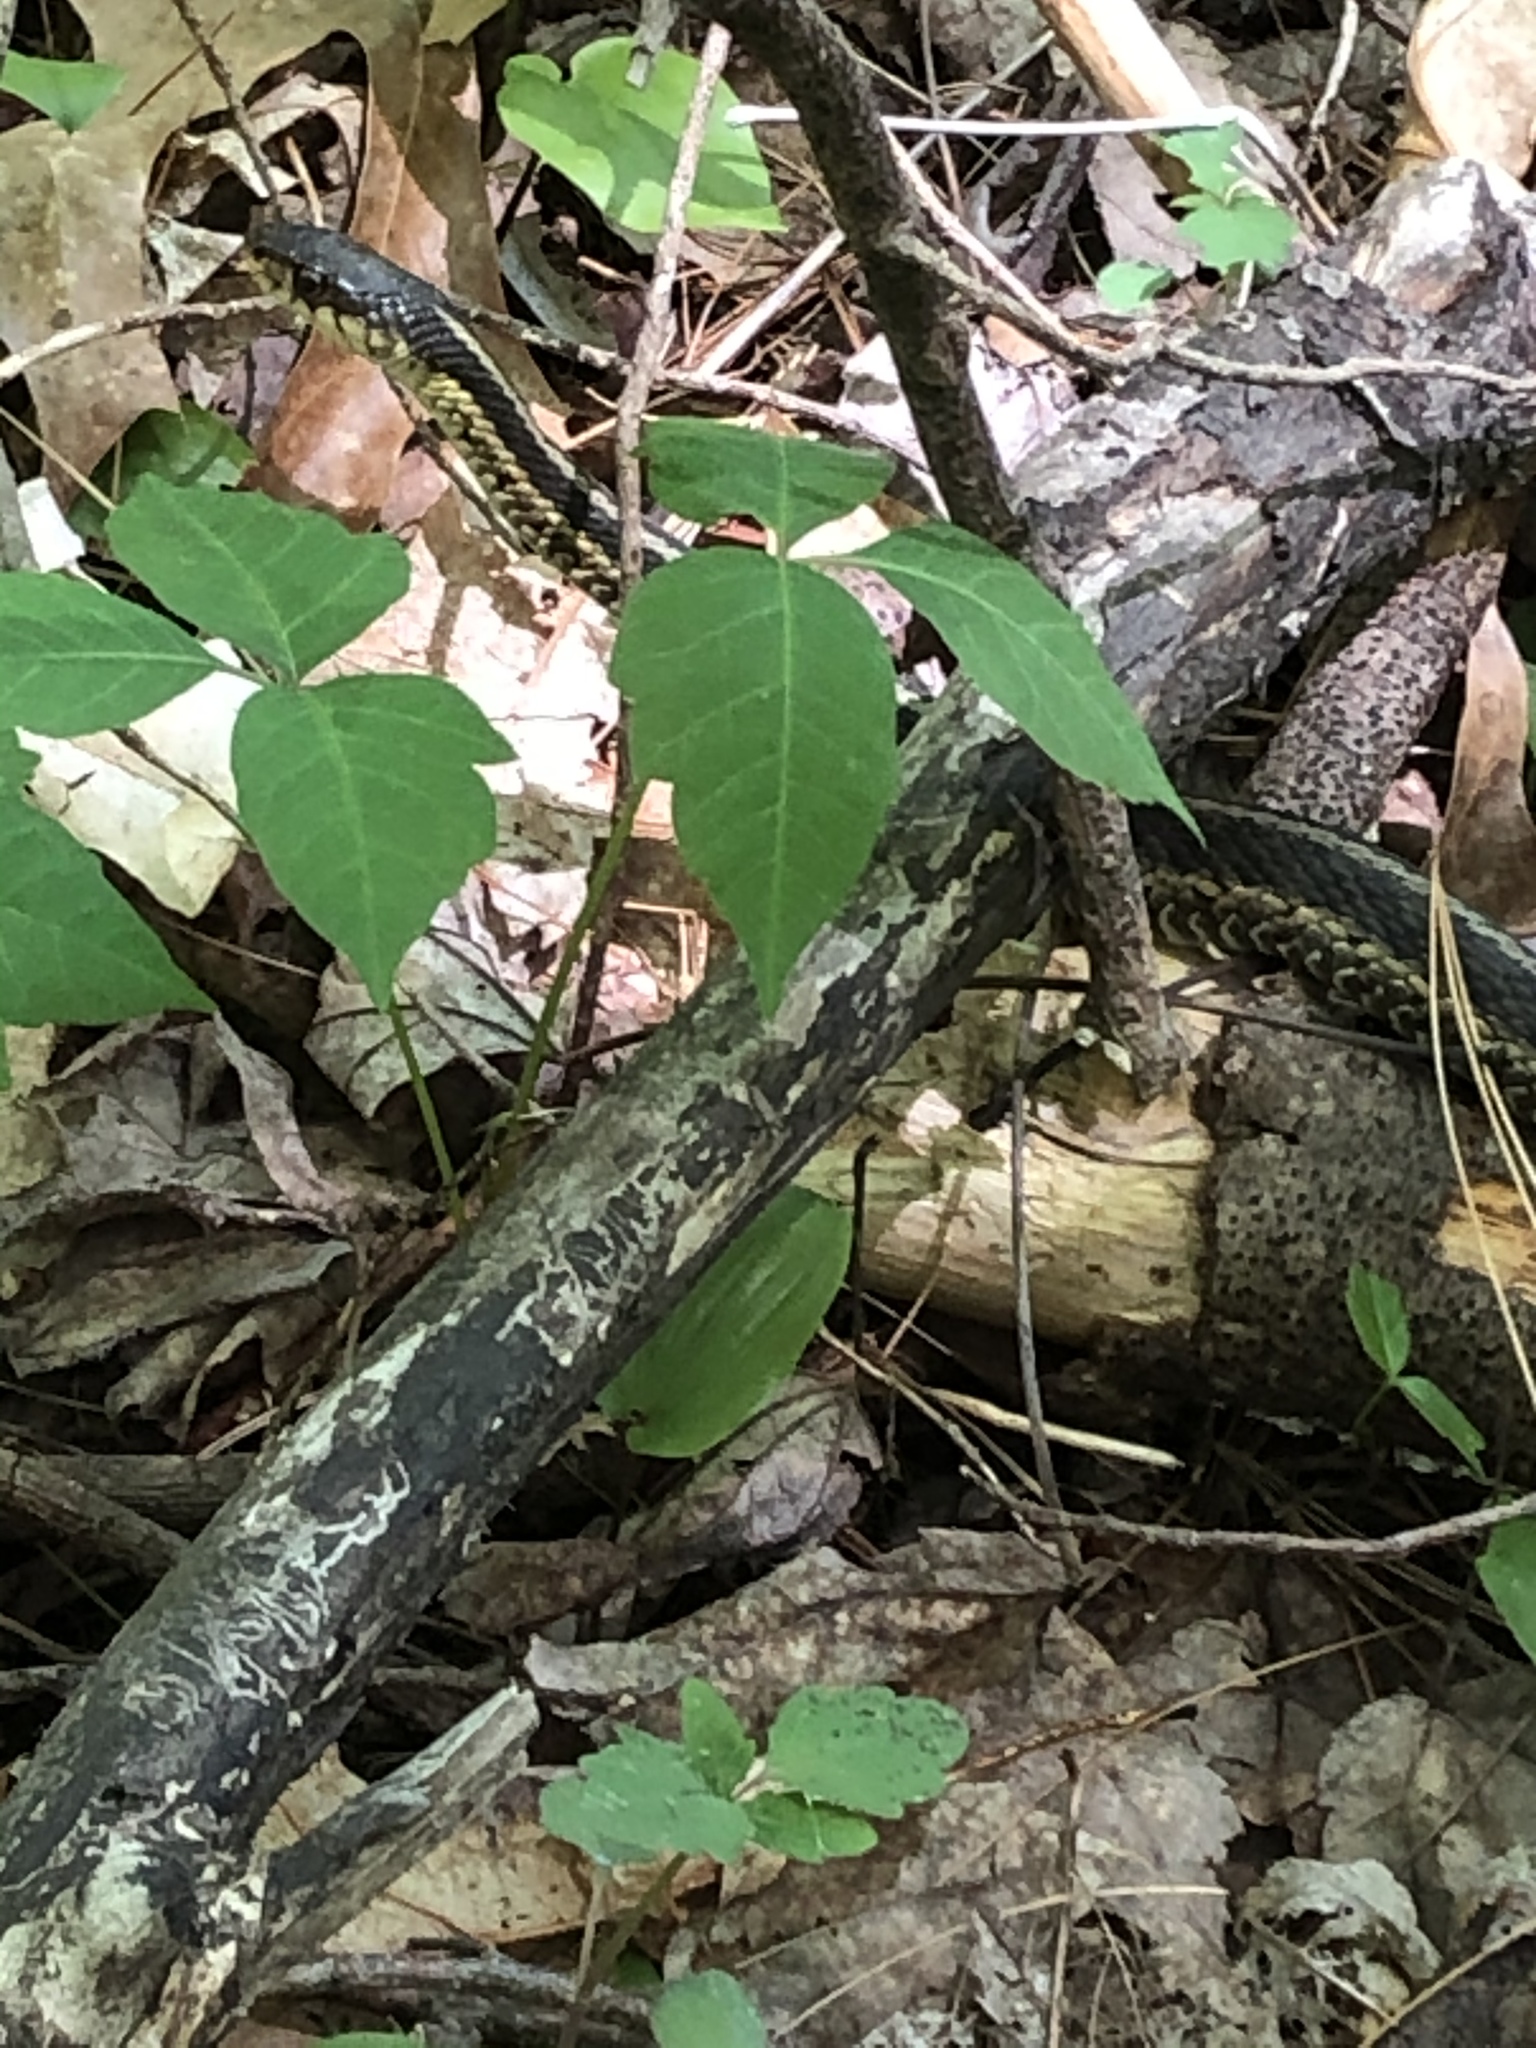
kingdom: Animalia
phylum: Chordata
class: Squamata
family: Colubridae
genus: Thamnophis
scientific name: Thamnophis sirtalis
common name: Common garter snake
